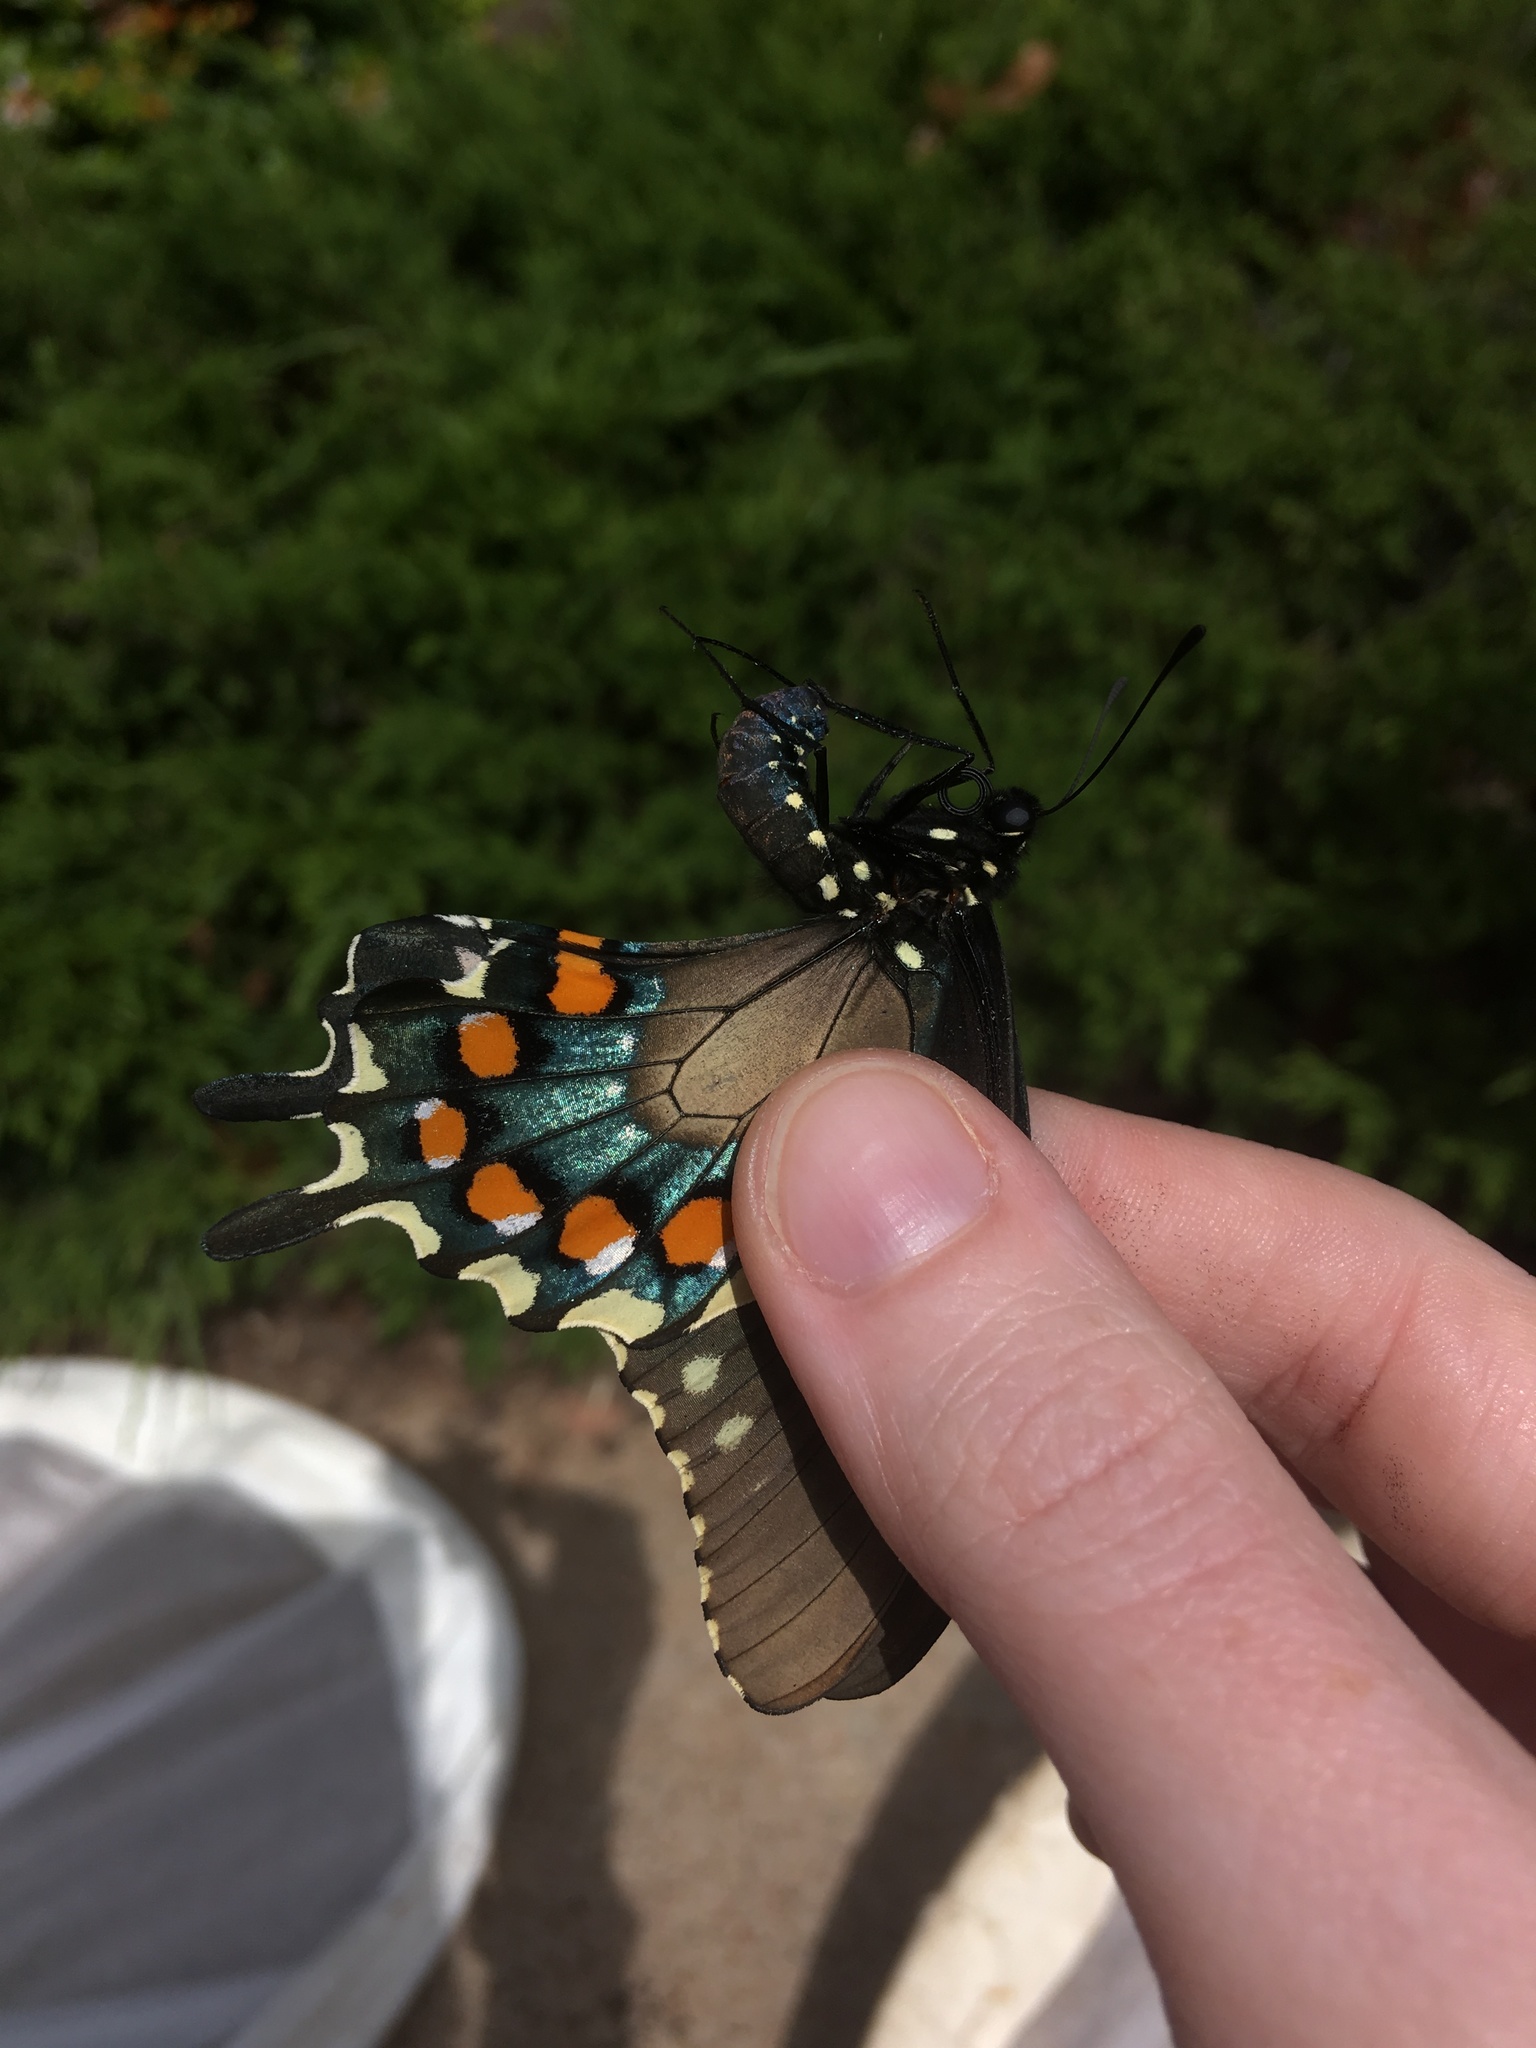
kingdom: Animalia
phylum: Arthropoda
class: Insecta
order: Lepidoptera
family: Papilionidae
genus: Battus
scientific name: Battus philenor
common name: Pipevine swallowtail
